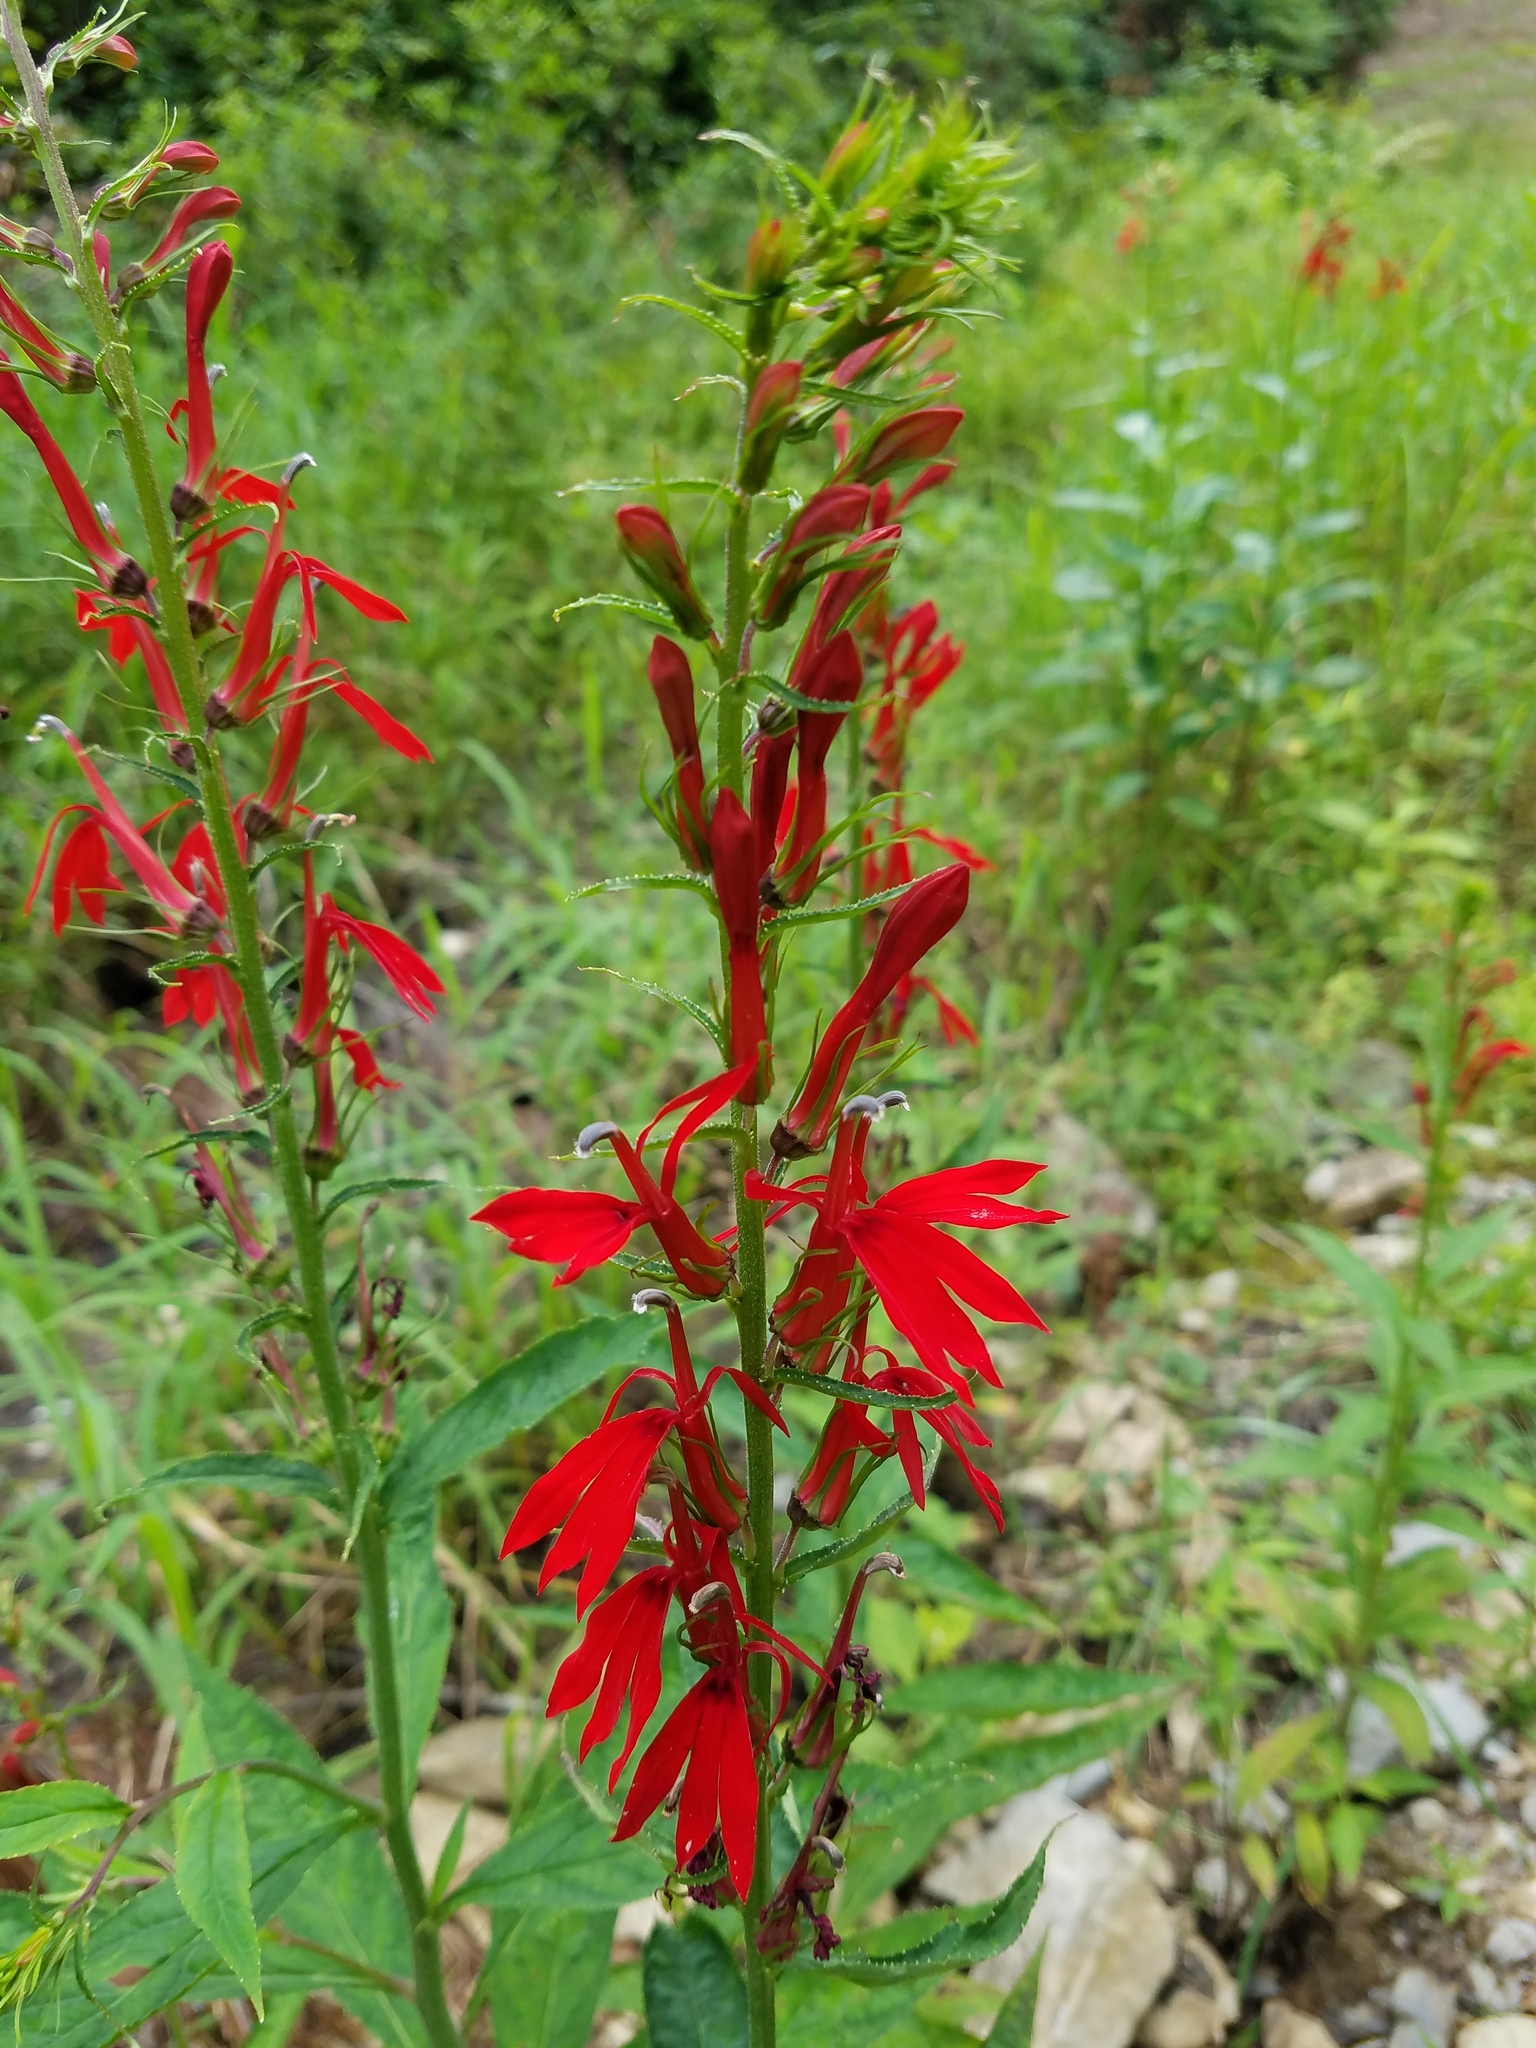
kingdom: Plantae
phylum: Tracheophyta
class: Magnoliopsida
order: Asterales
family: Campanulaceae
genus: Lobelia
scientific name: Lobelia cardinalis
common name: Cardinal flower
